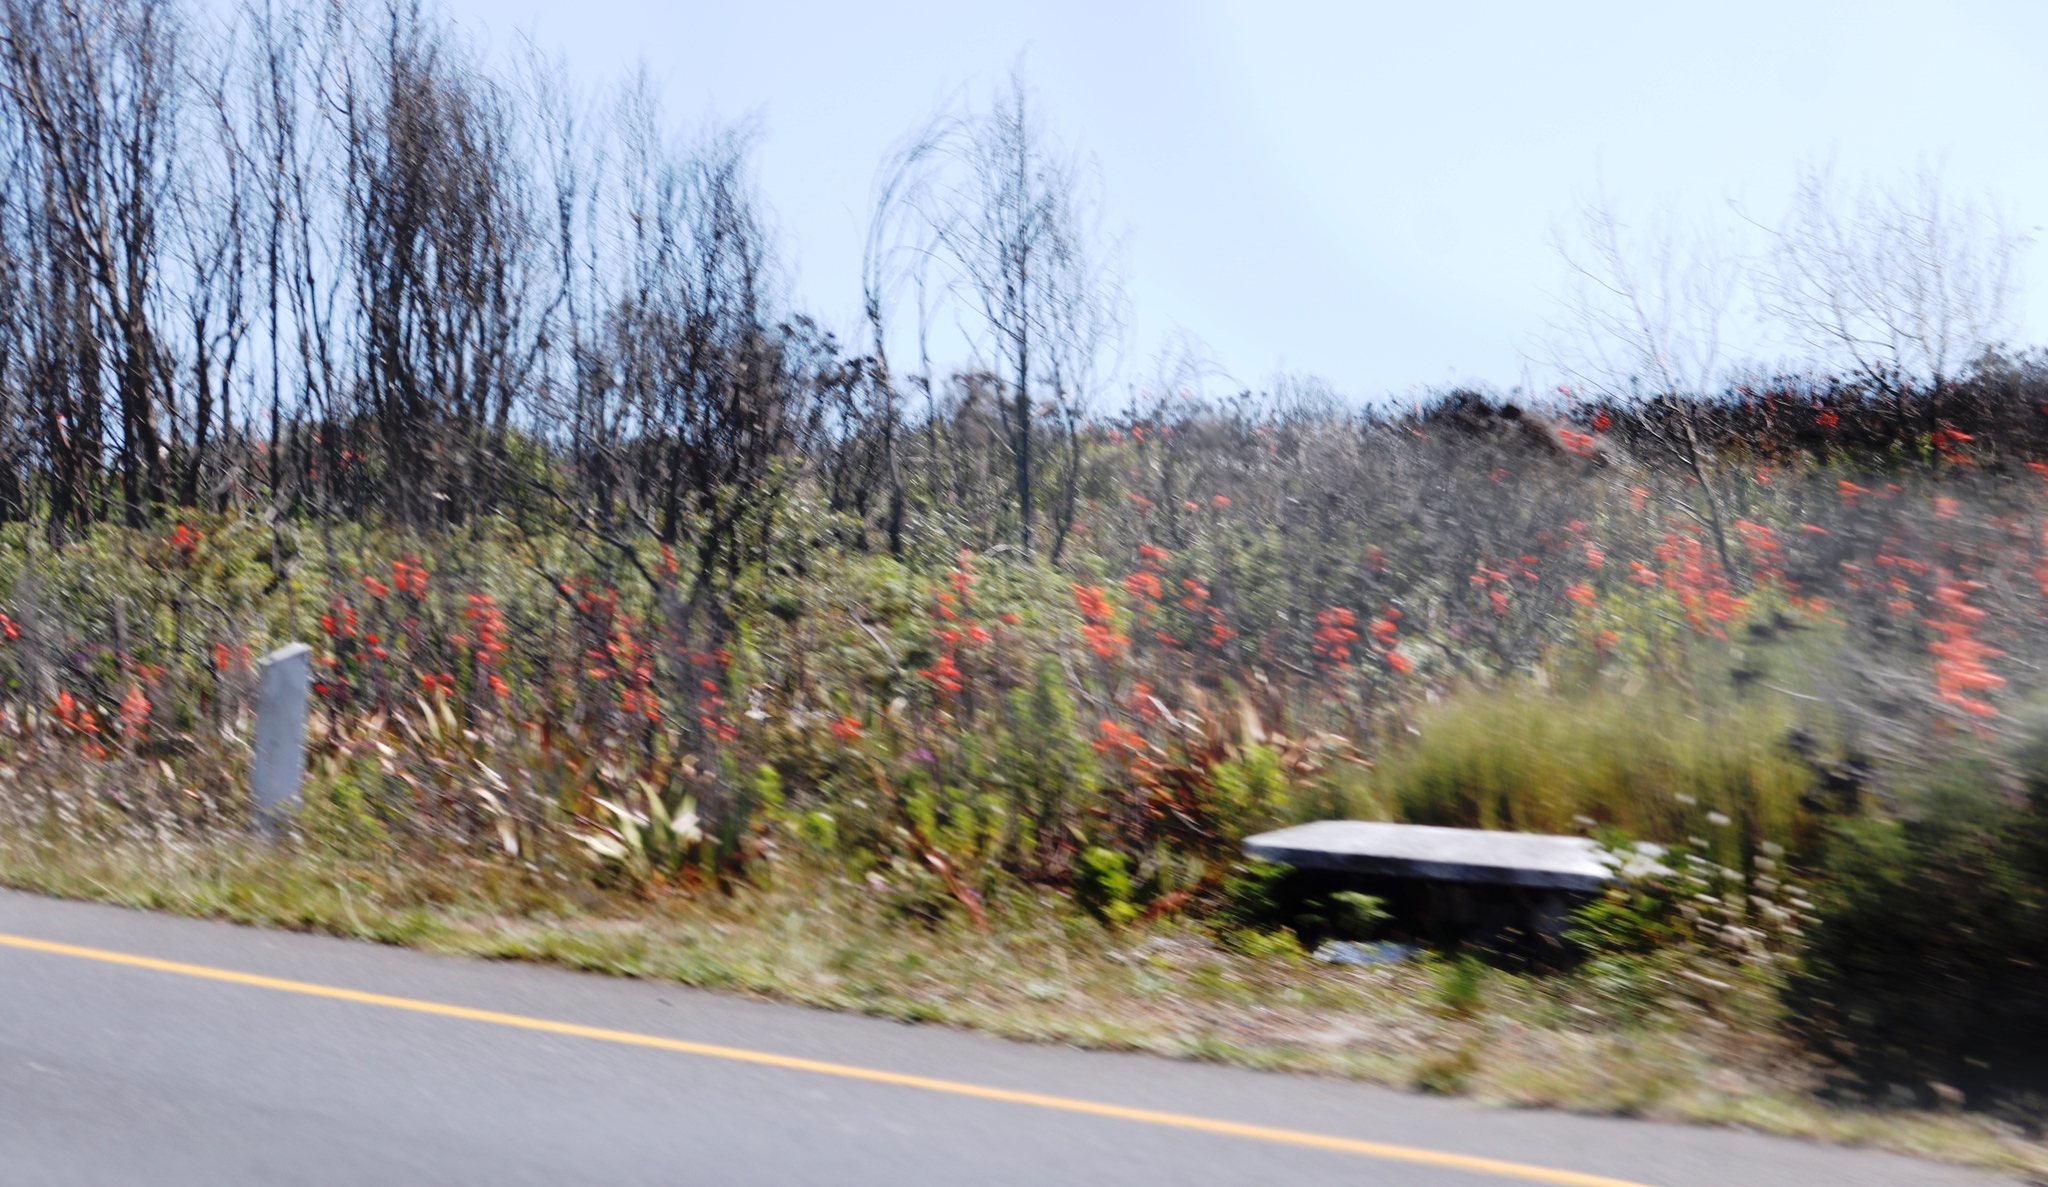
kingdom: Plantae
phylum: Tracheophyta
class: Liliopsida
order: Asparagales
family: Iridaceae
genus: Watsonia
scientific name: Watsonia tabularis
